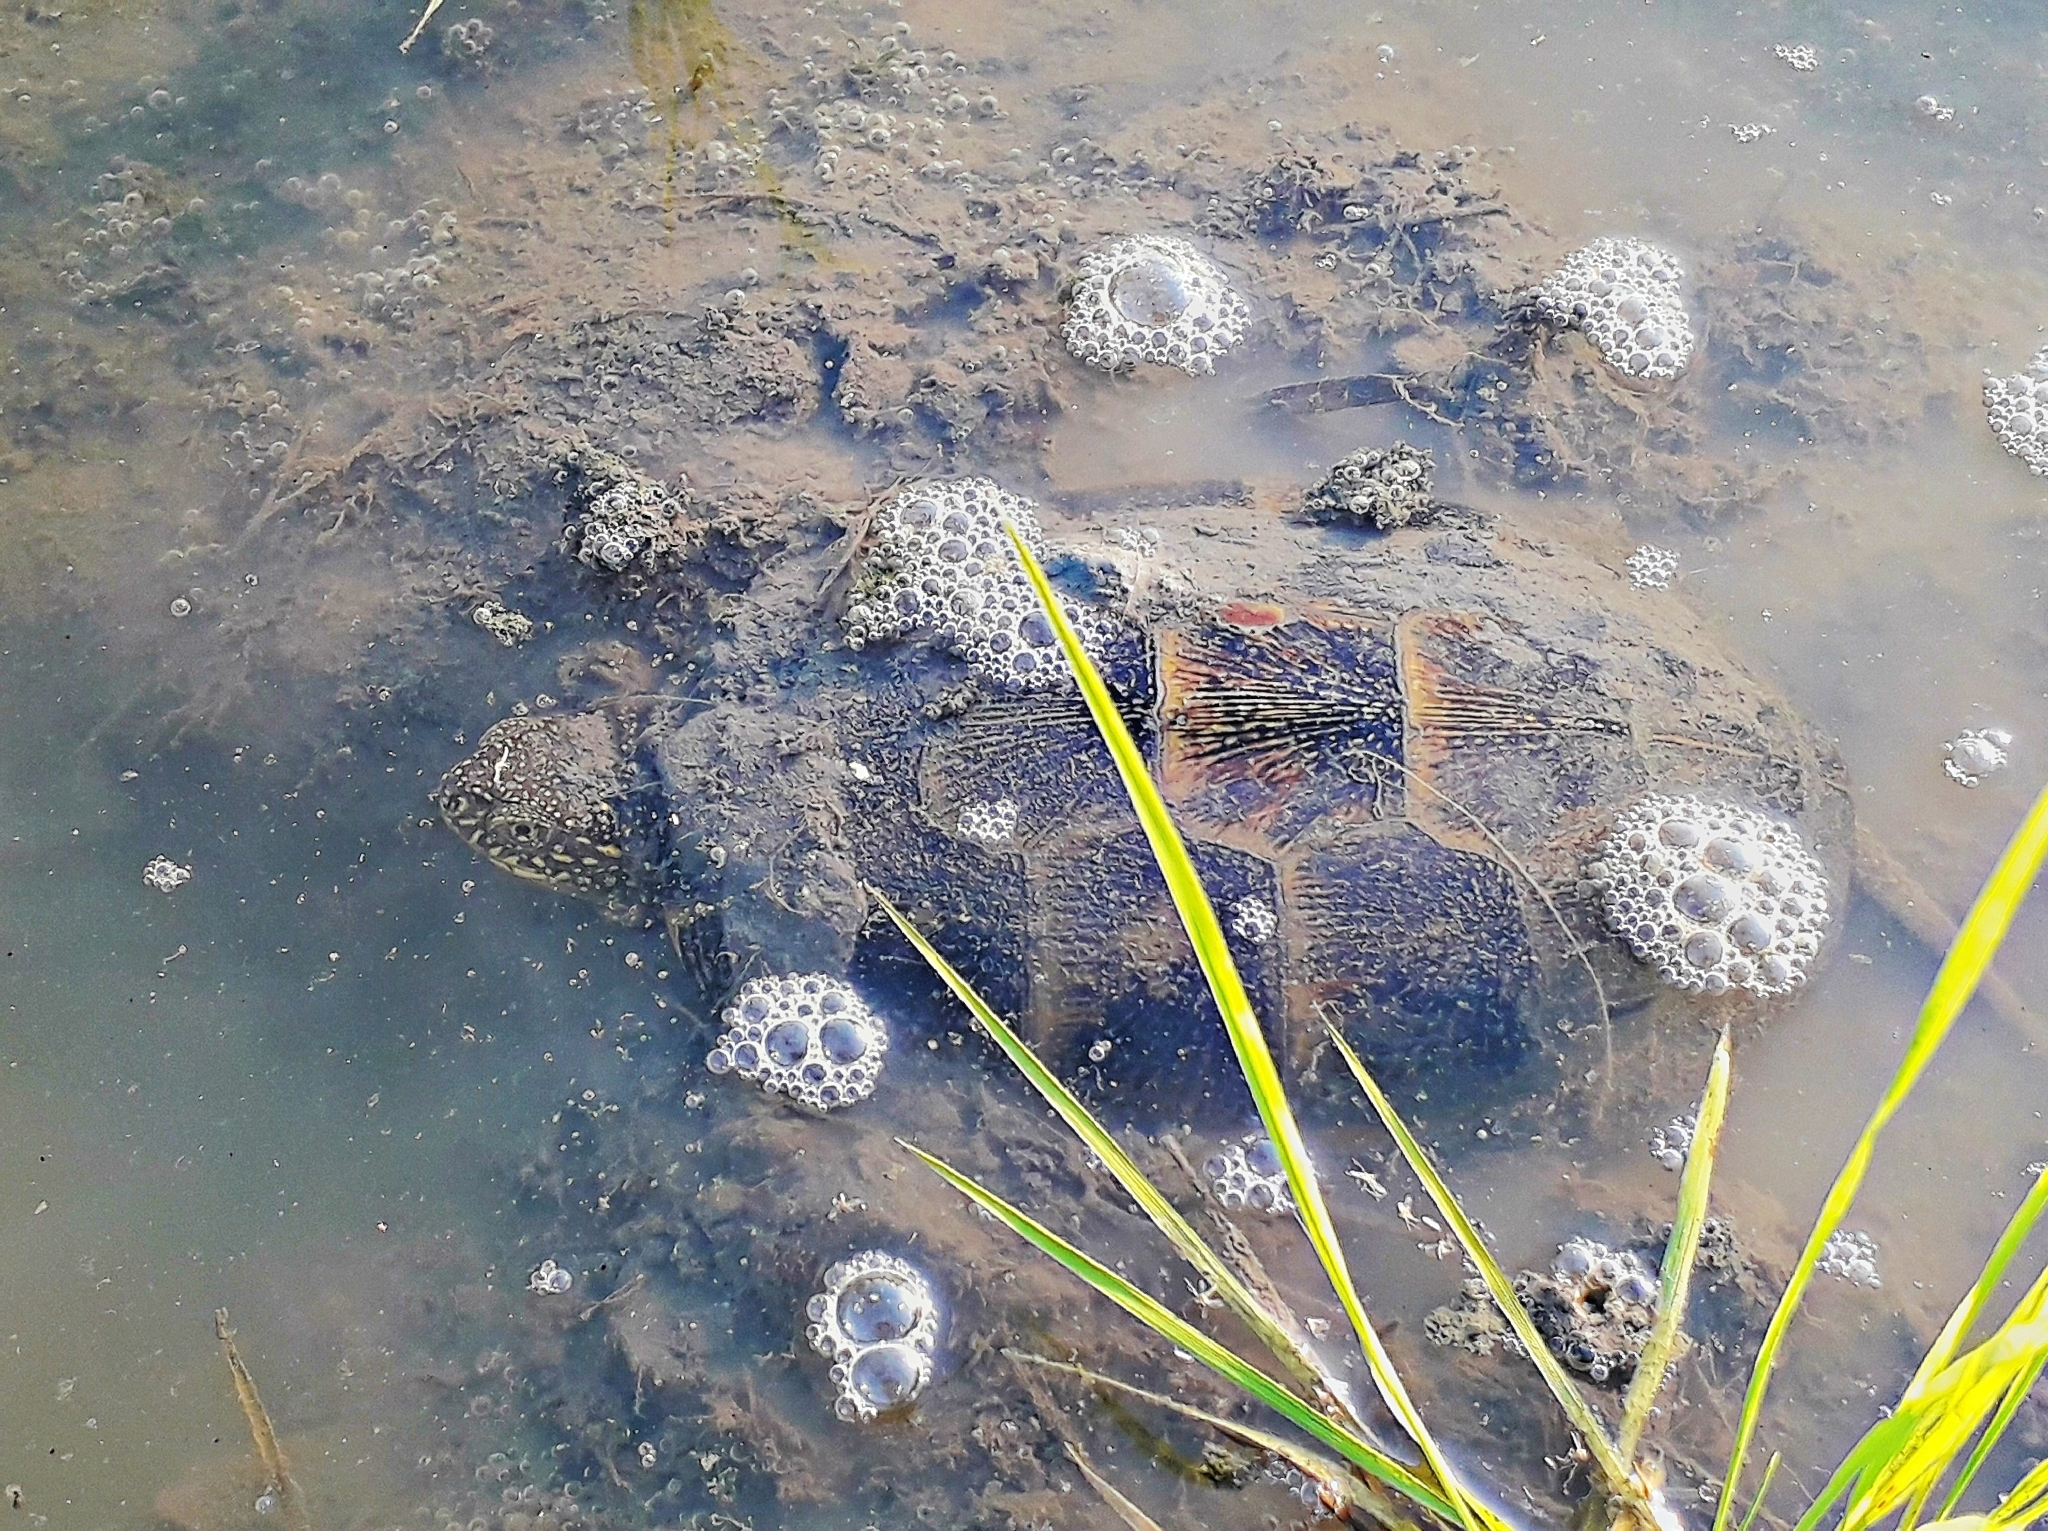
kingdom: Animalia
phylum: Chordata
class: Testudines
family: Emydidae
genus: Emys
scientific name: Emys orbicularis
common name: European pond turtle
